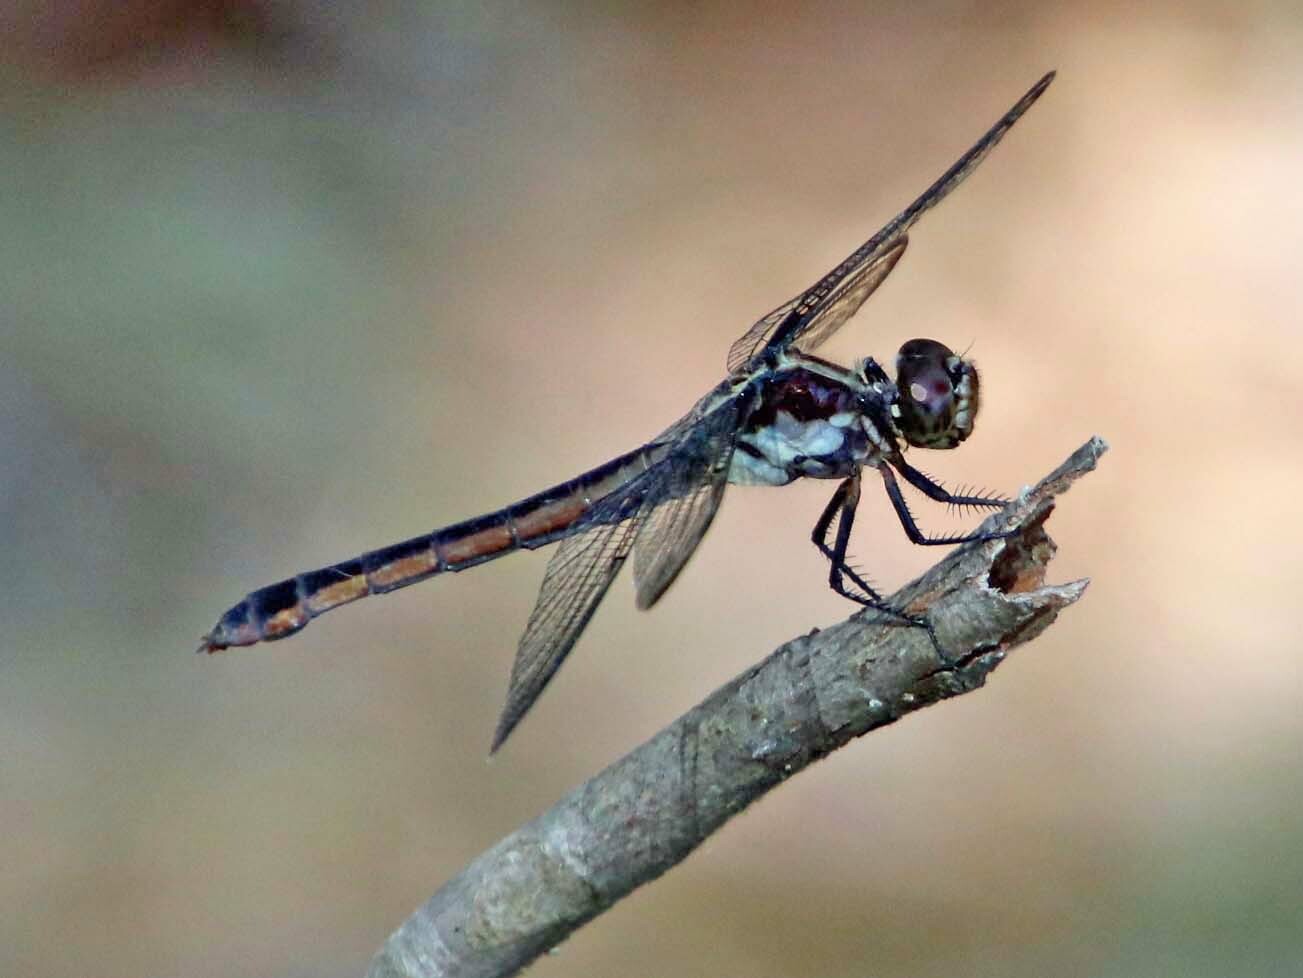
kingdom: Animalia
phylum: Arthropoda
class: Insecta
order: Odonata
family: Libellulidae
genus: Libellula
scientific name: Libellula incesta
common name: Slaty skimmer
